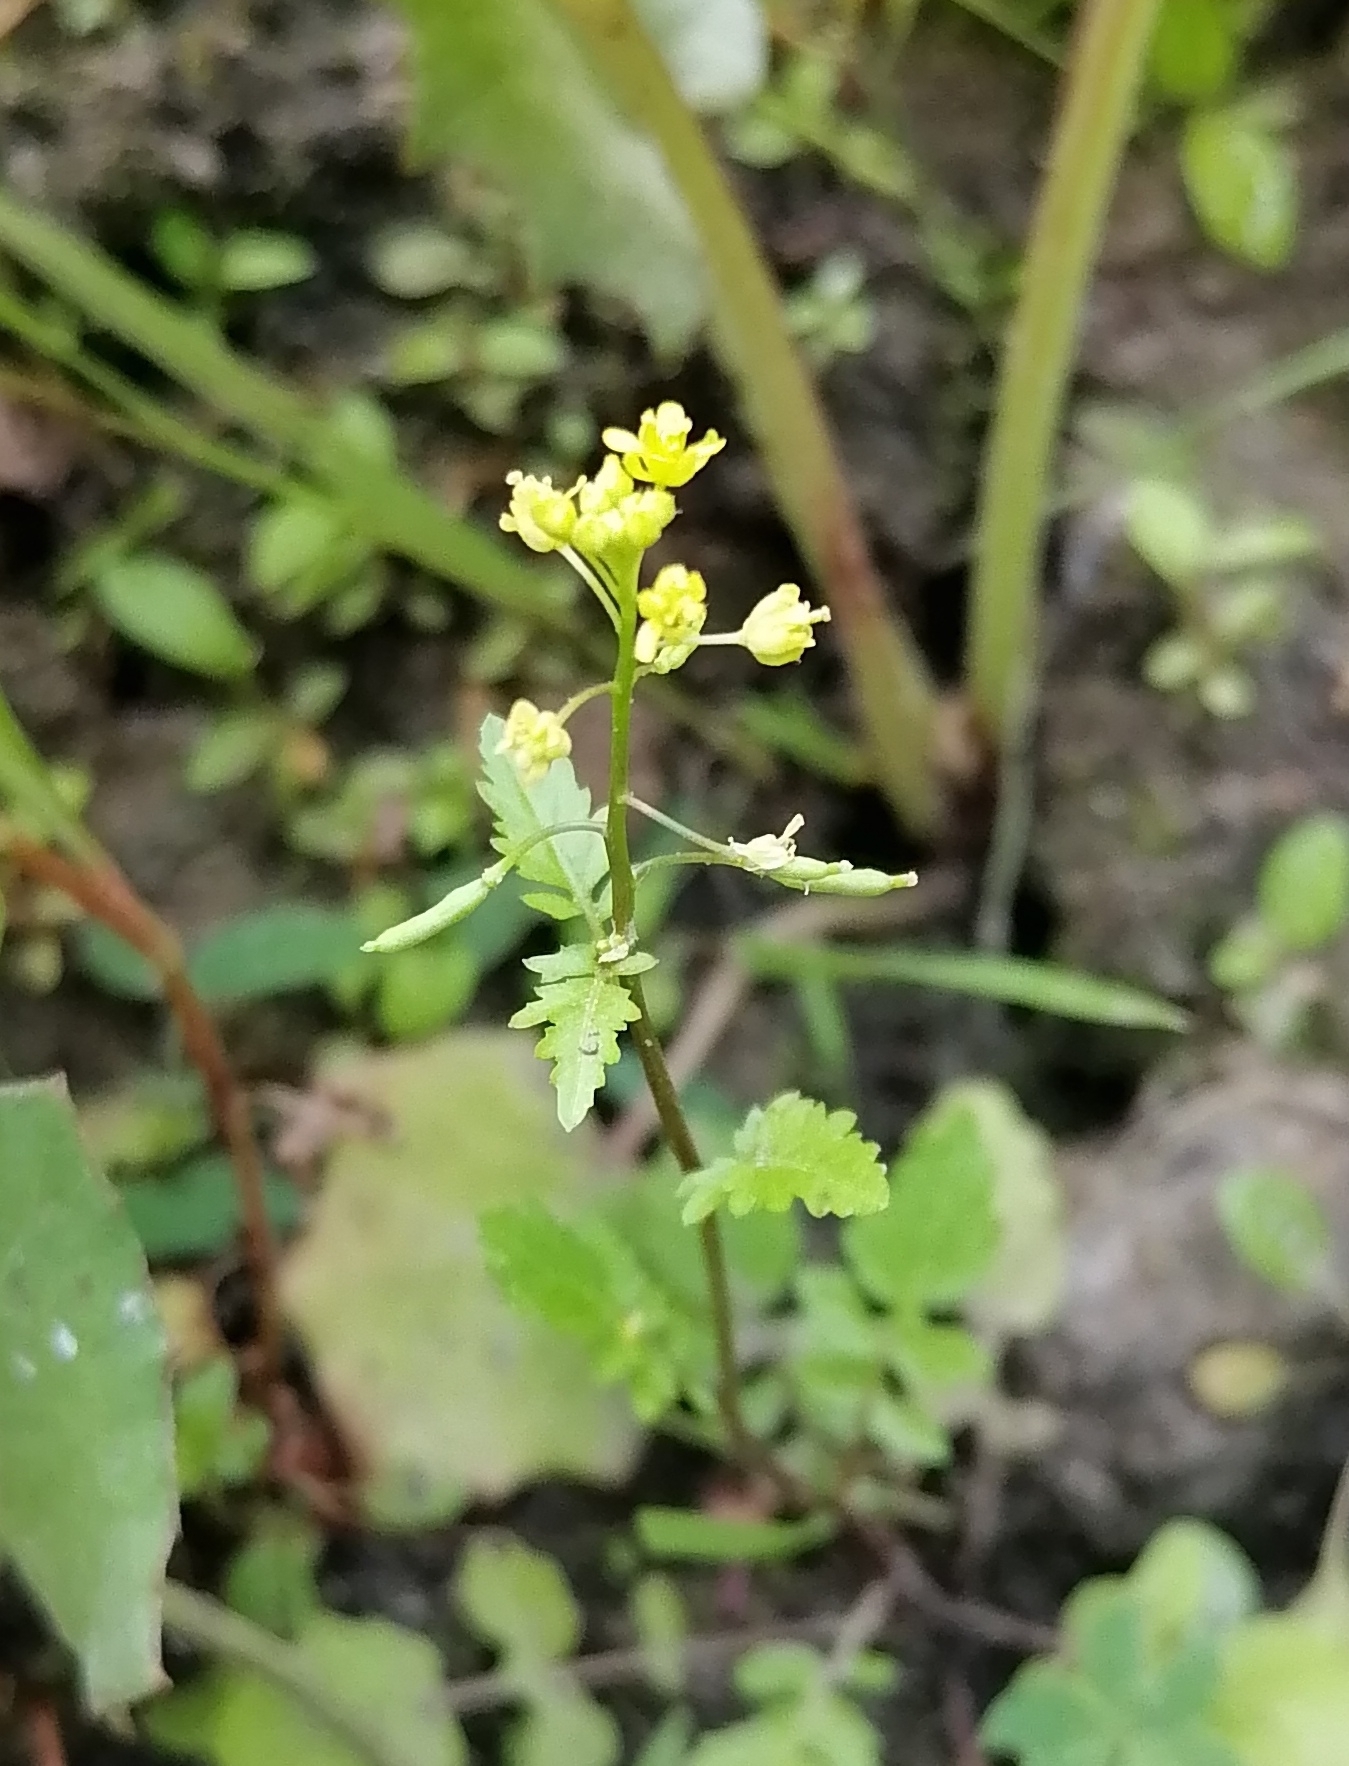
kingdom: Plantae
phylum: Tracheophyta
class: Magnoliopsida
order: Brassicales
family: Brassicaceae
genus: Rorippa
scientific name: Rorippa palustris
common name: Marsh yellow-cress
